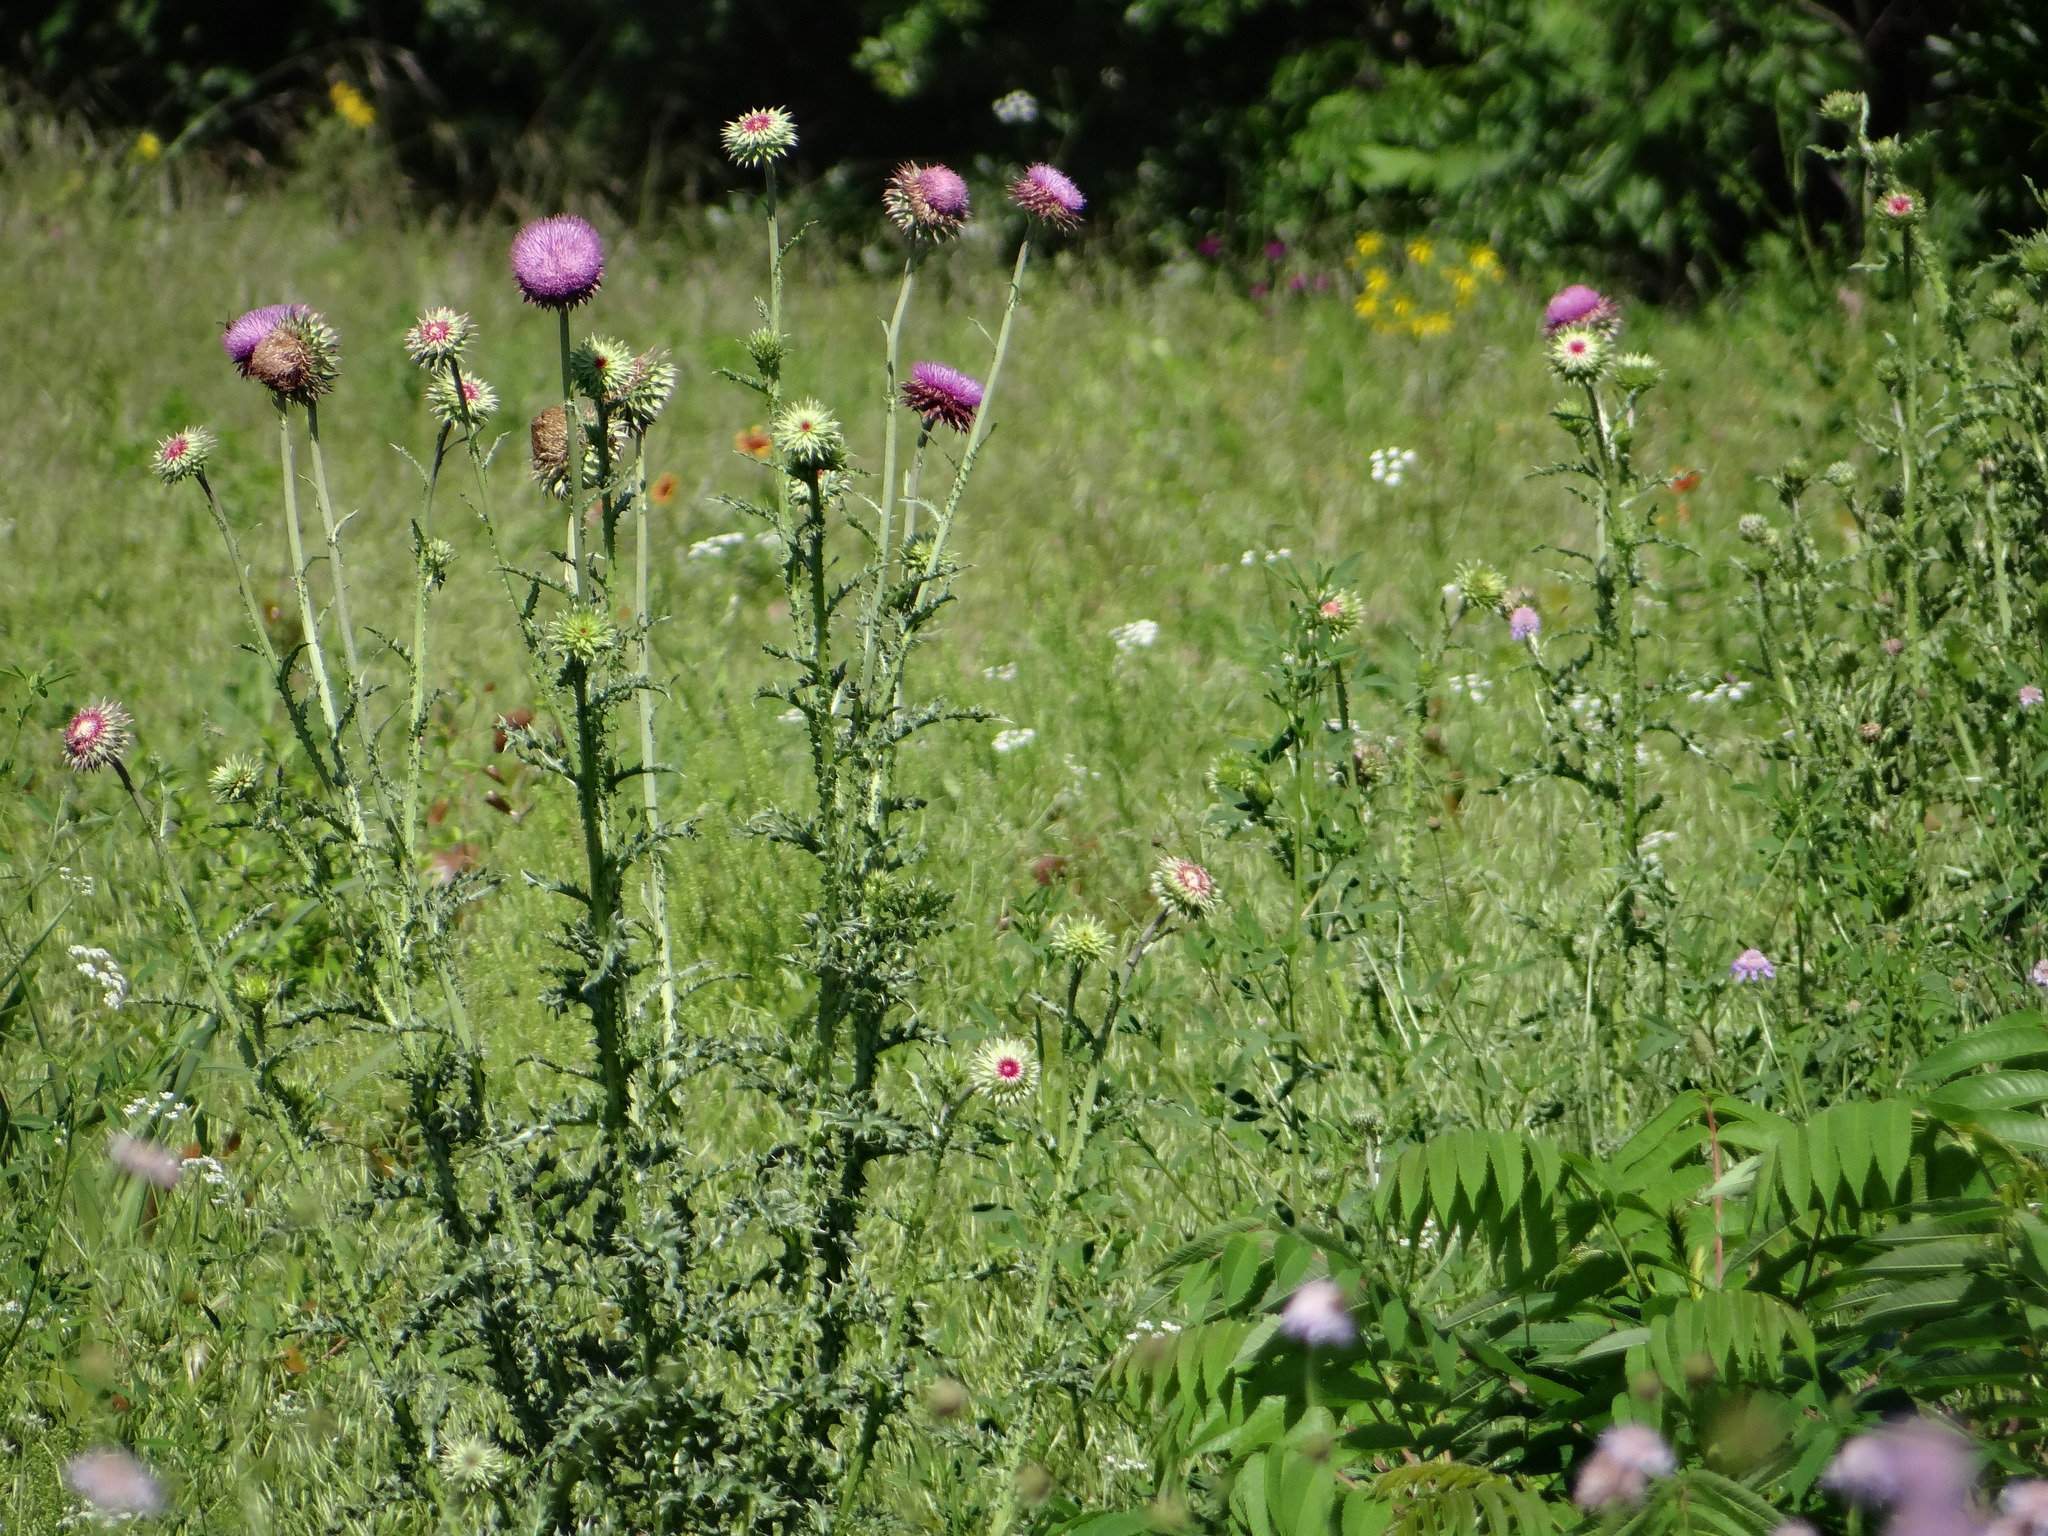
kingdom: Plantae
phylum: Tracheophyta
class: Magnoliopsida
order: Asterales
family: Asteraceae
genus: Carduus
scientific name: Carduus nutans
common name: Musk thistle
